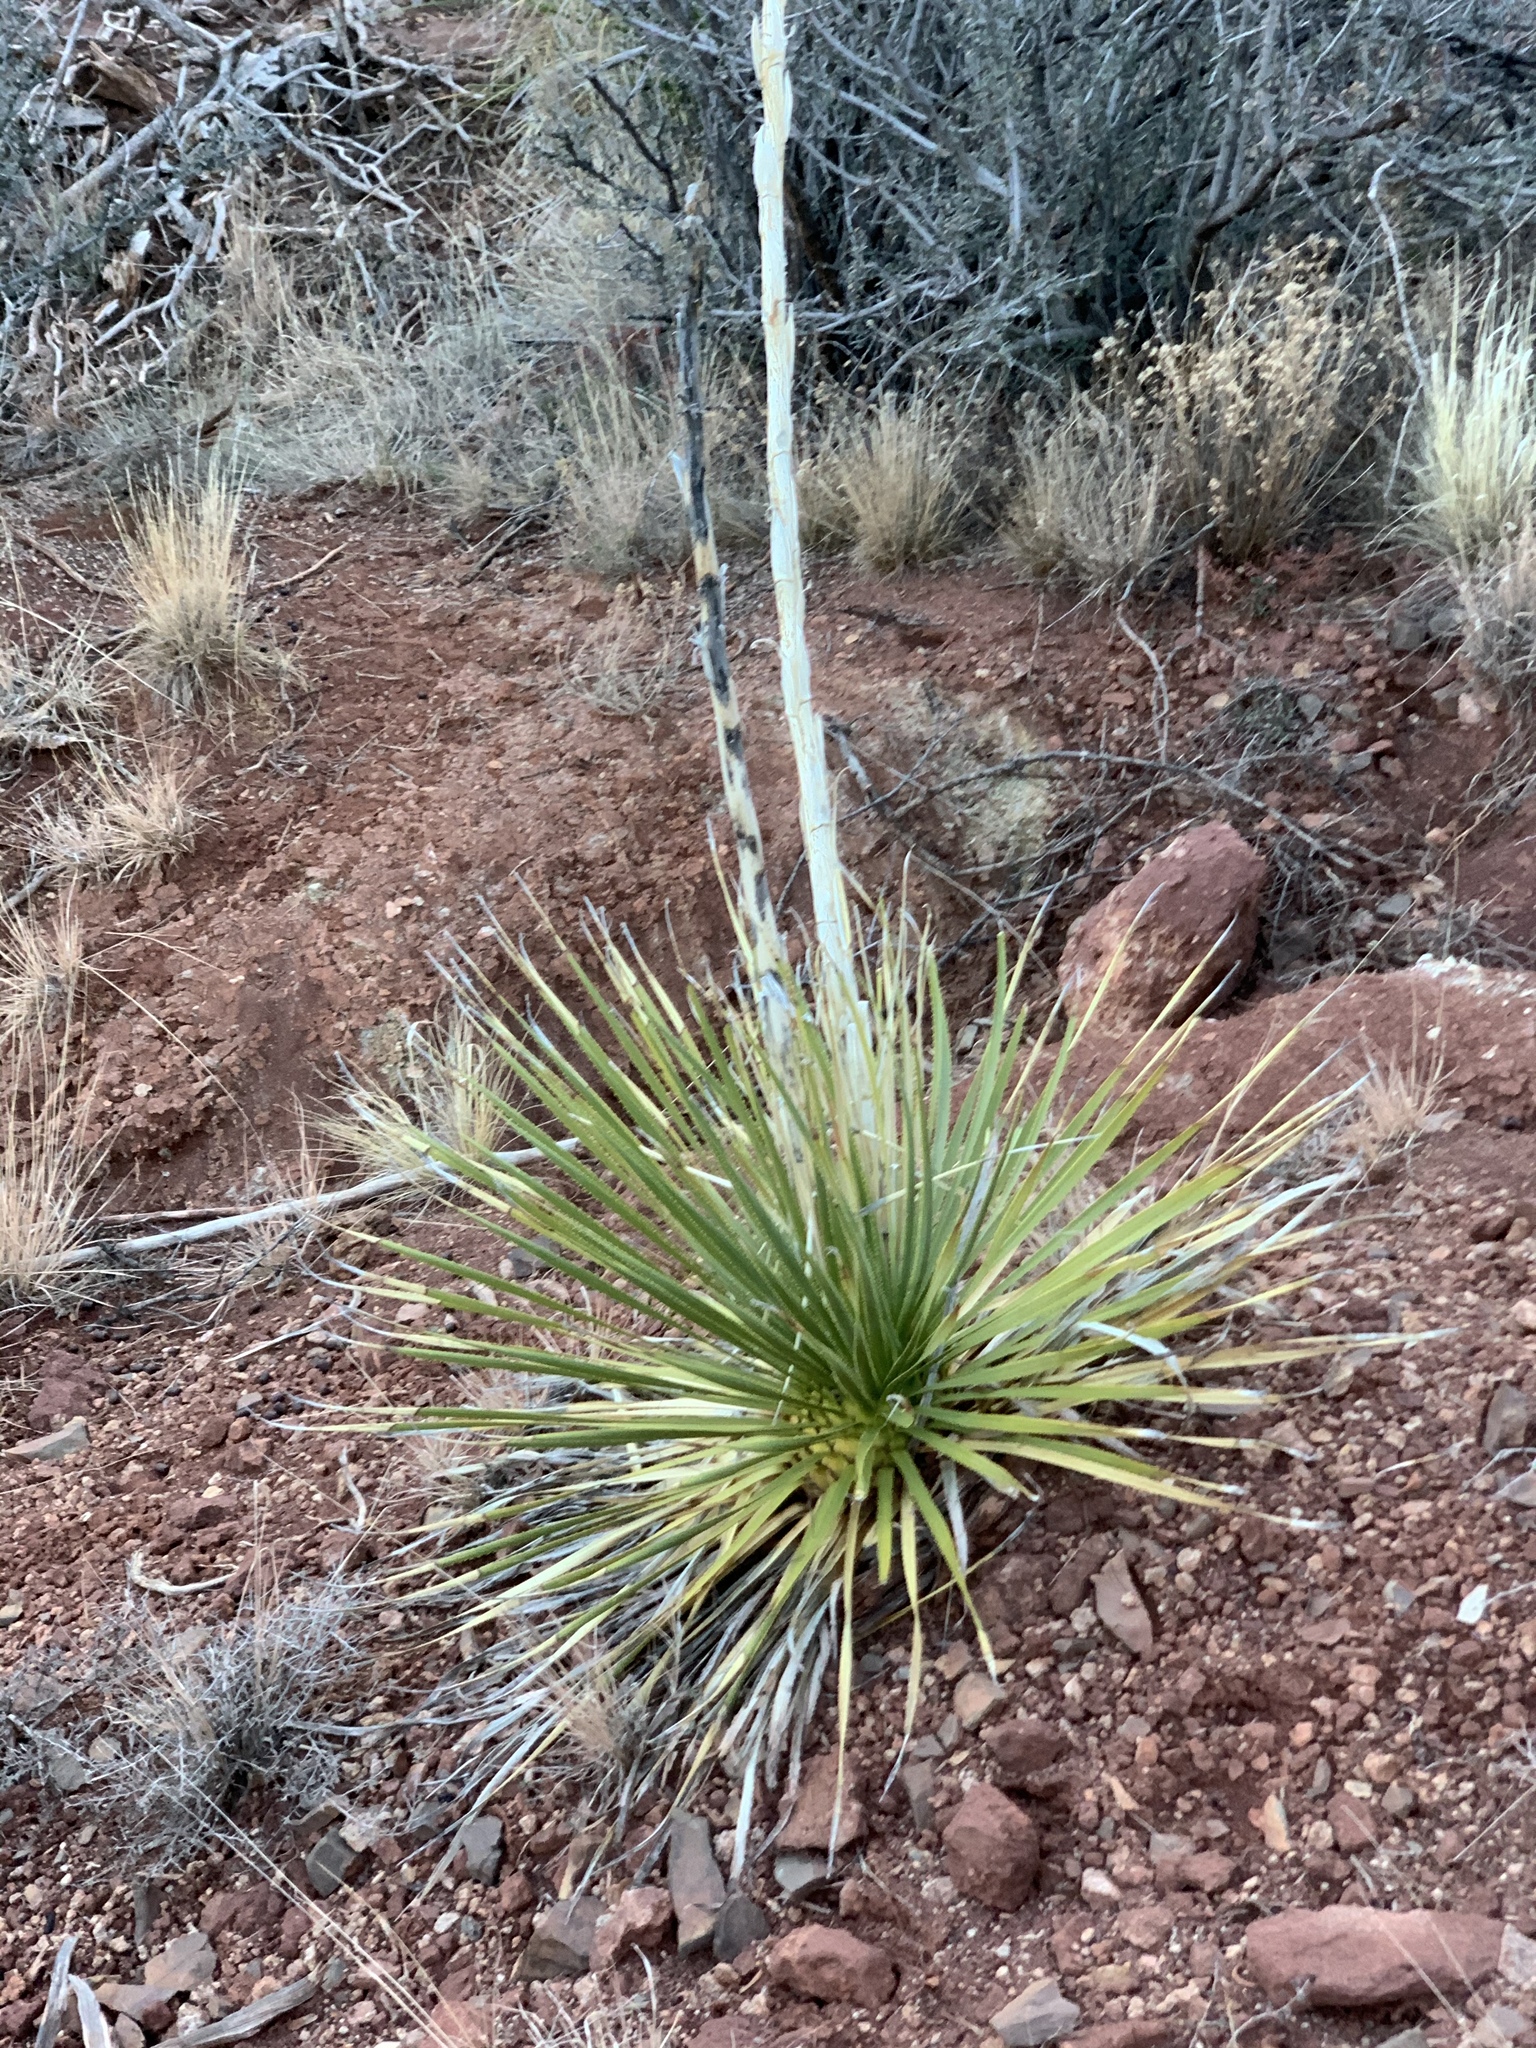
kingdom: Plantae
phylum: Tracheophyta
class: Liliopsida
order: Asparagales
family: Asparagaceae
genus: Dasylirion
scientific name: Dasylirion wheeleri
